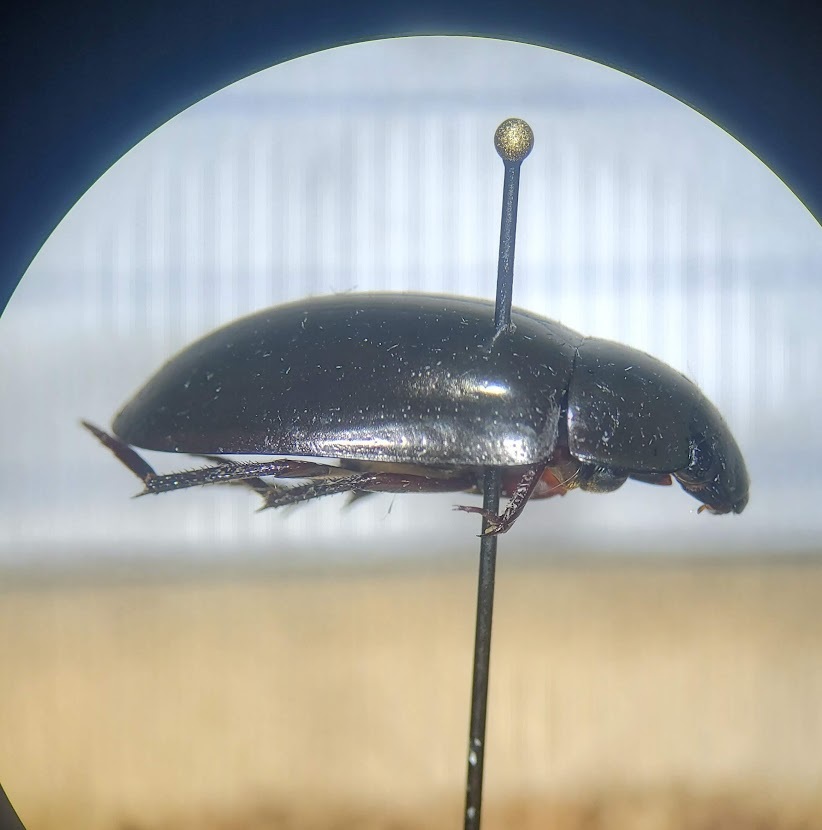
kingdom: Animalia
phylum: Arthropoda
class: Insecta
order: Coleoptera
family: Hydrophilidae
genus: Hydrochara
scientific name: Hydrochara
